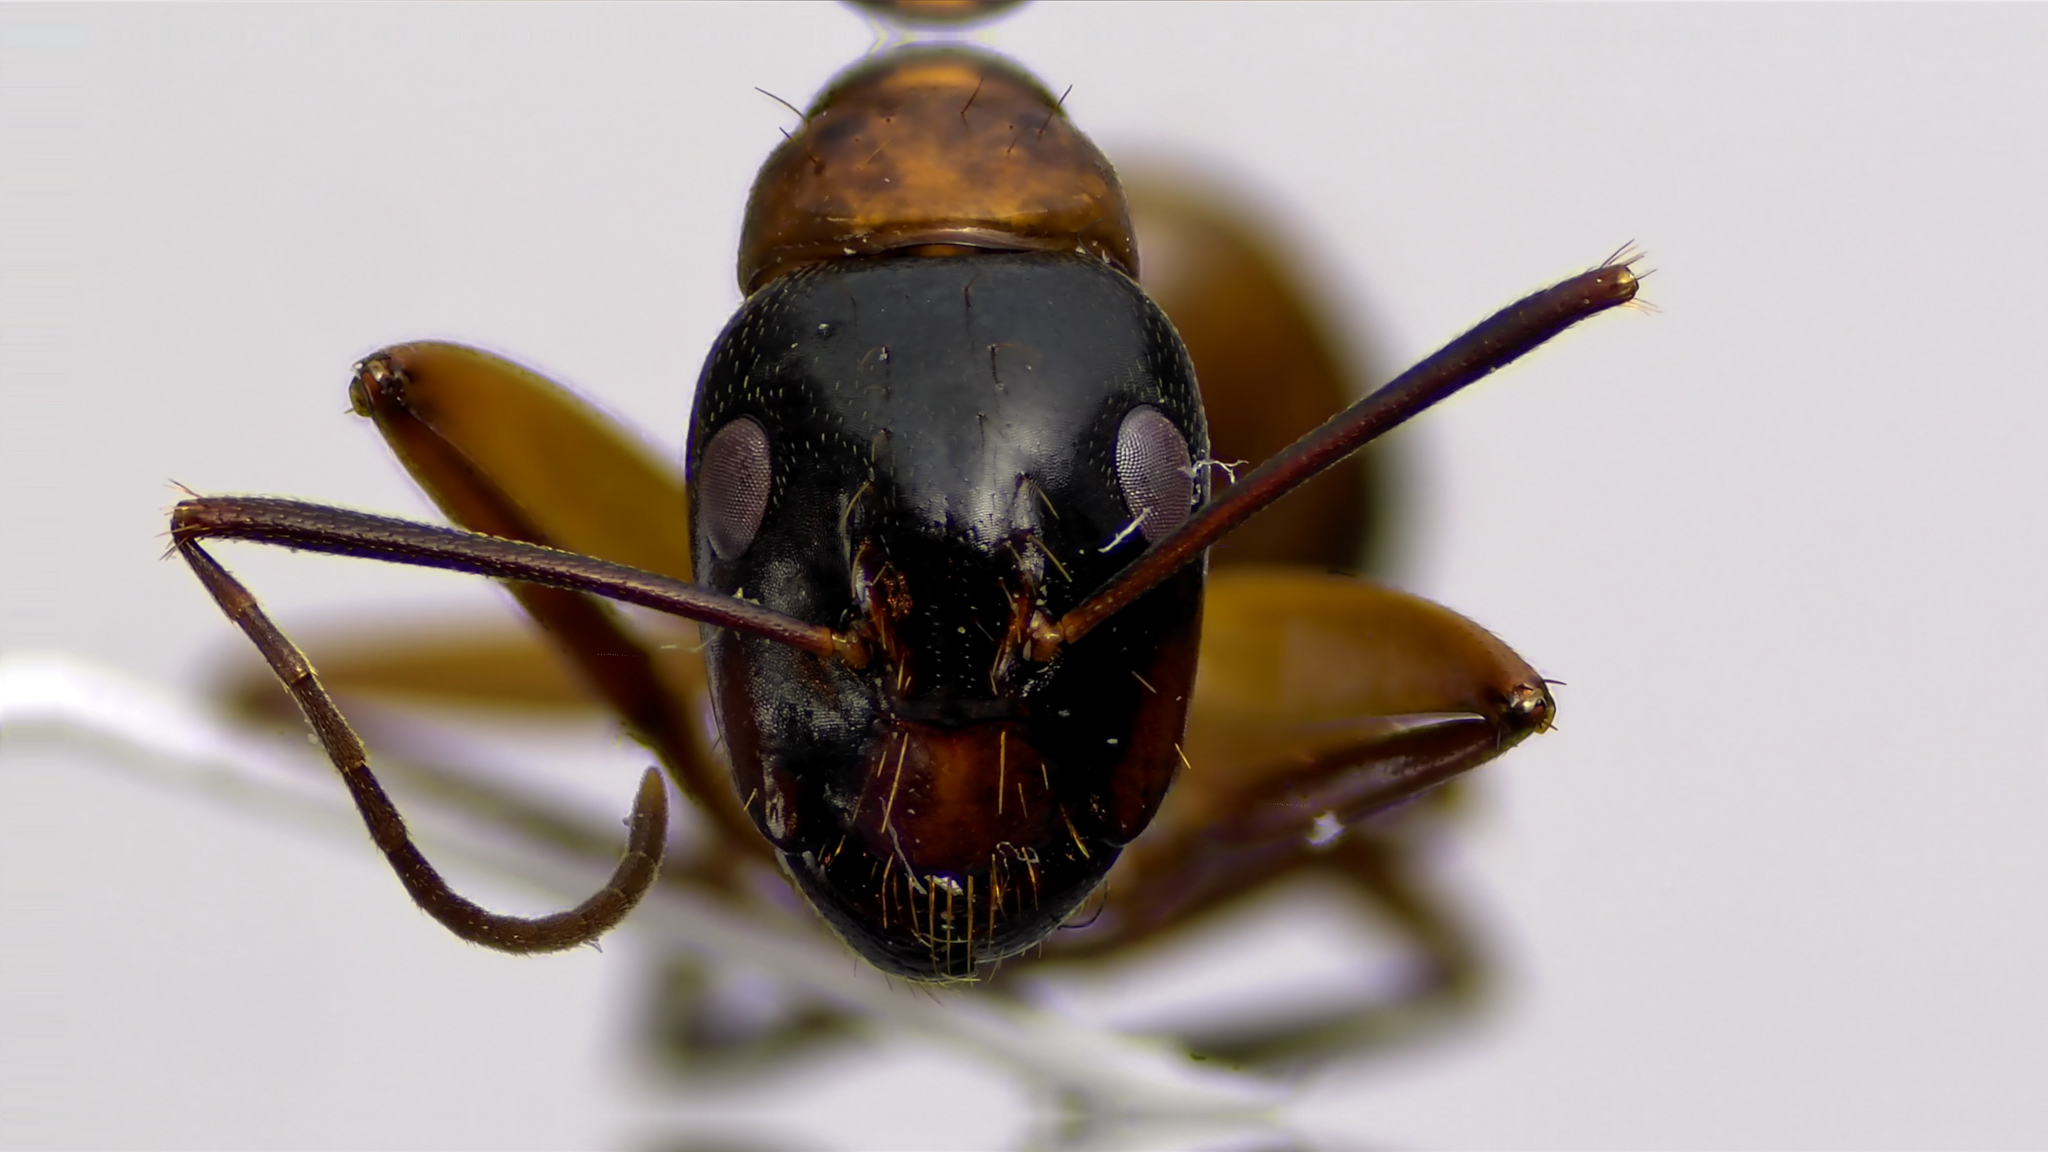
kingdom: Animalia
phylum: Arthropoda
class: Insecta
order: Hymenoptera
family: Formicidae
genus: Camponotus
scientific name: Camponotus americanus
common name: American carpenter ant
